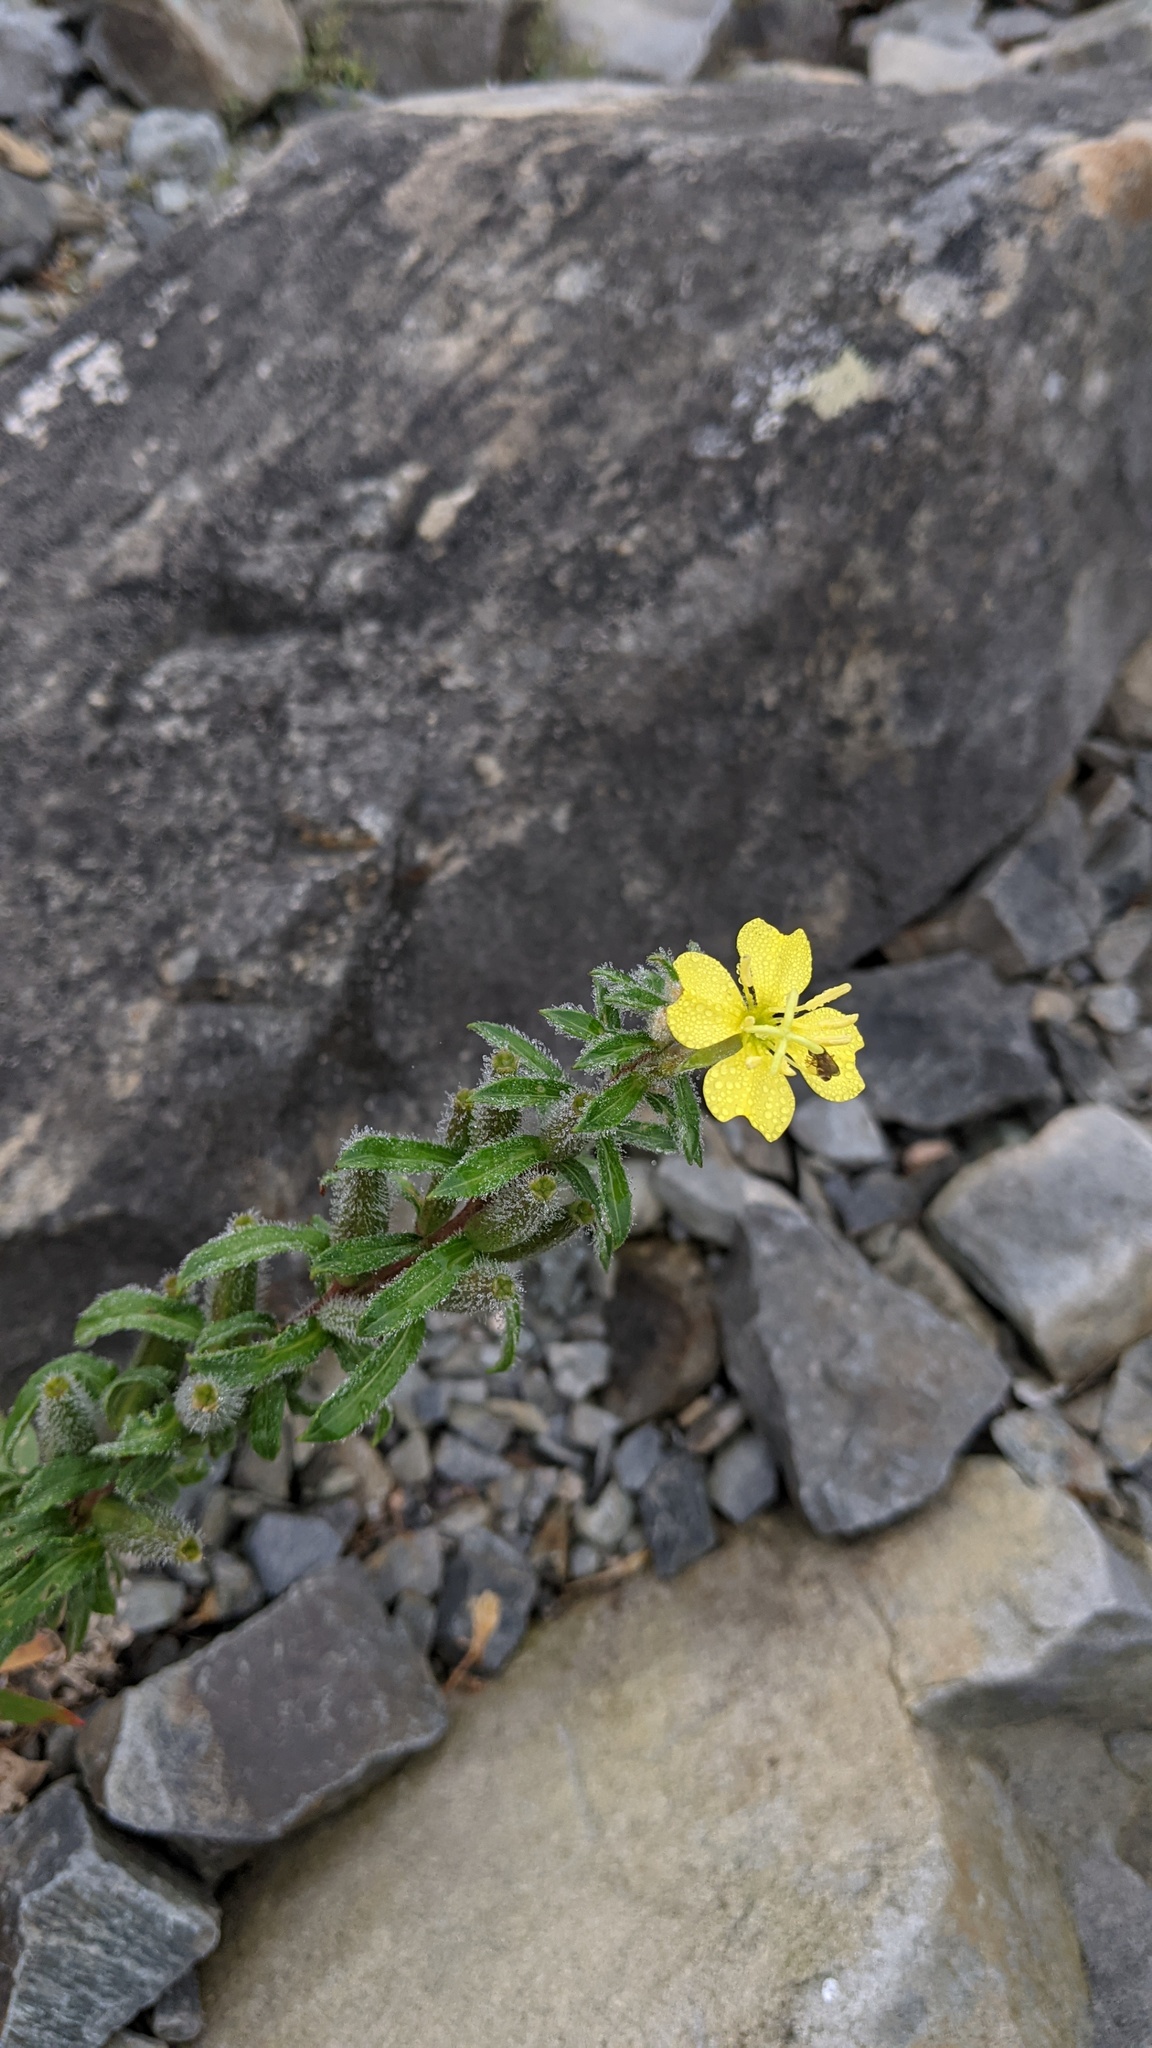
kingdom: Plantae
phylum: Tracheophyta
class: Magnoliopsida
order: Myrtales
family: Onagraceae
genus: Oenothera
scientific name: Oenothera perennis
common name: Small sundrops
